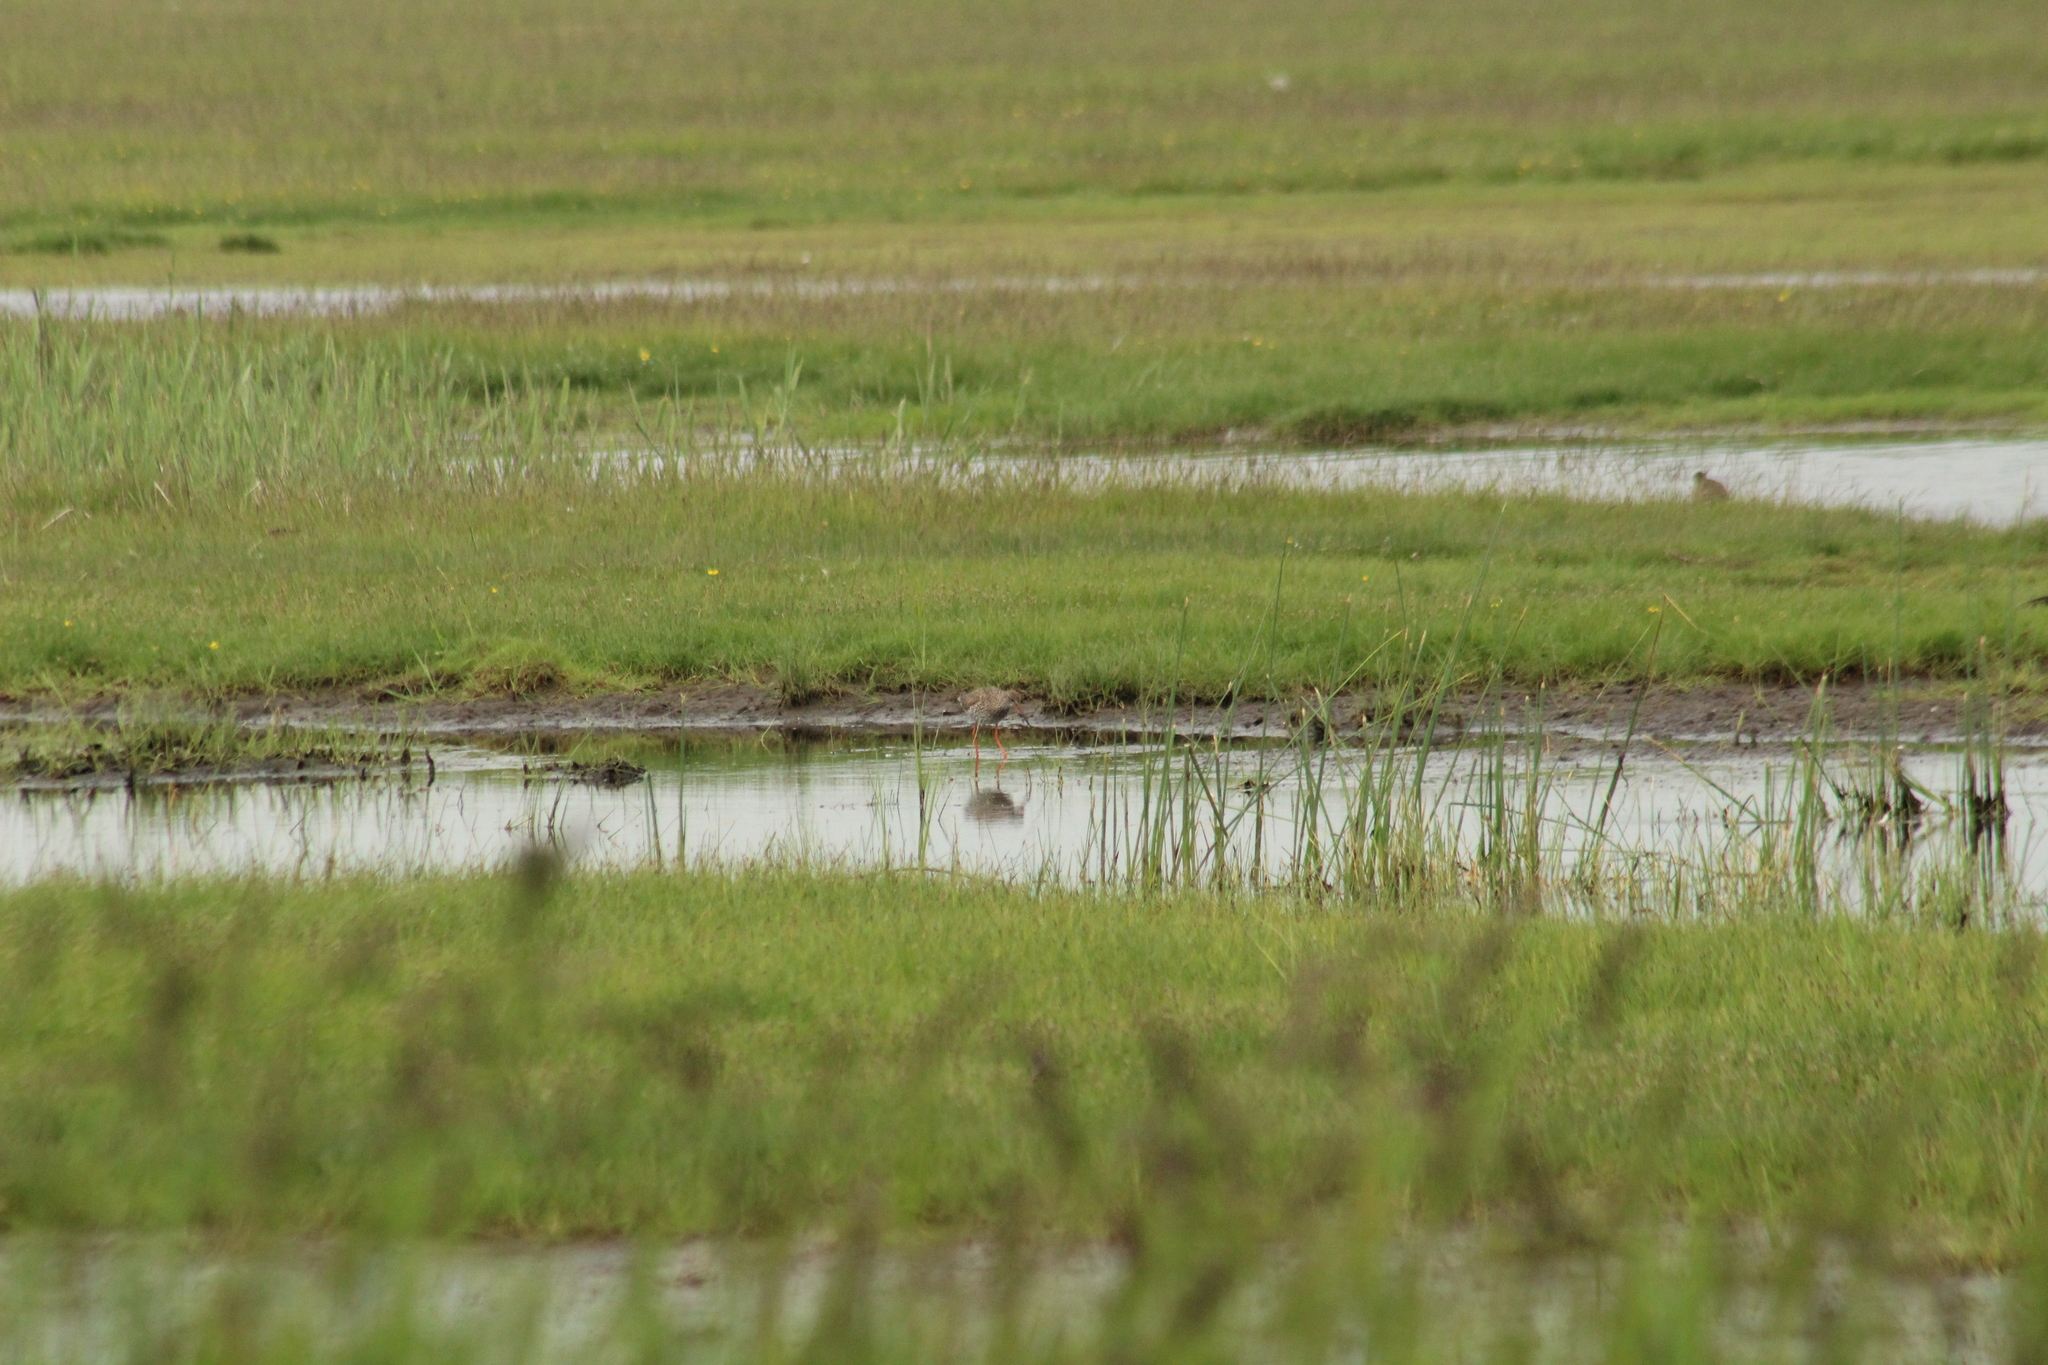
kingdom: Animalia
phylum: Chordata
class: Aves
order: Charadriiformes
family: Scolopacidae
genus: Tringa
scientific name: Tringa totanus
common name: Common redshank
